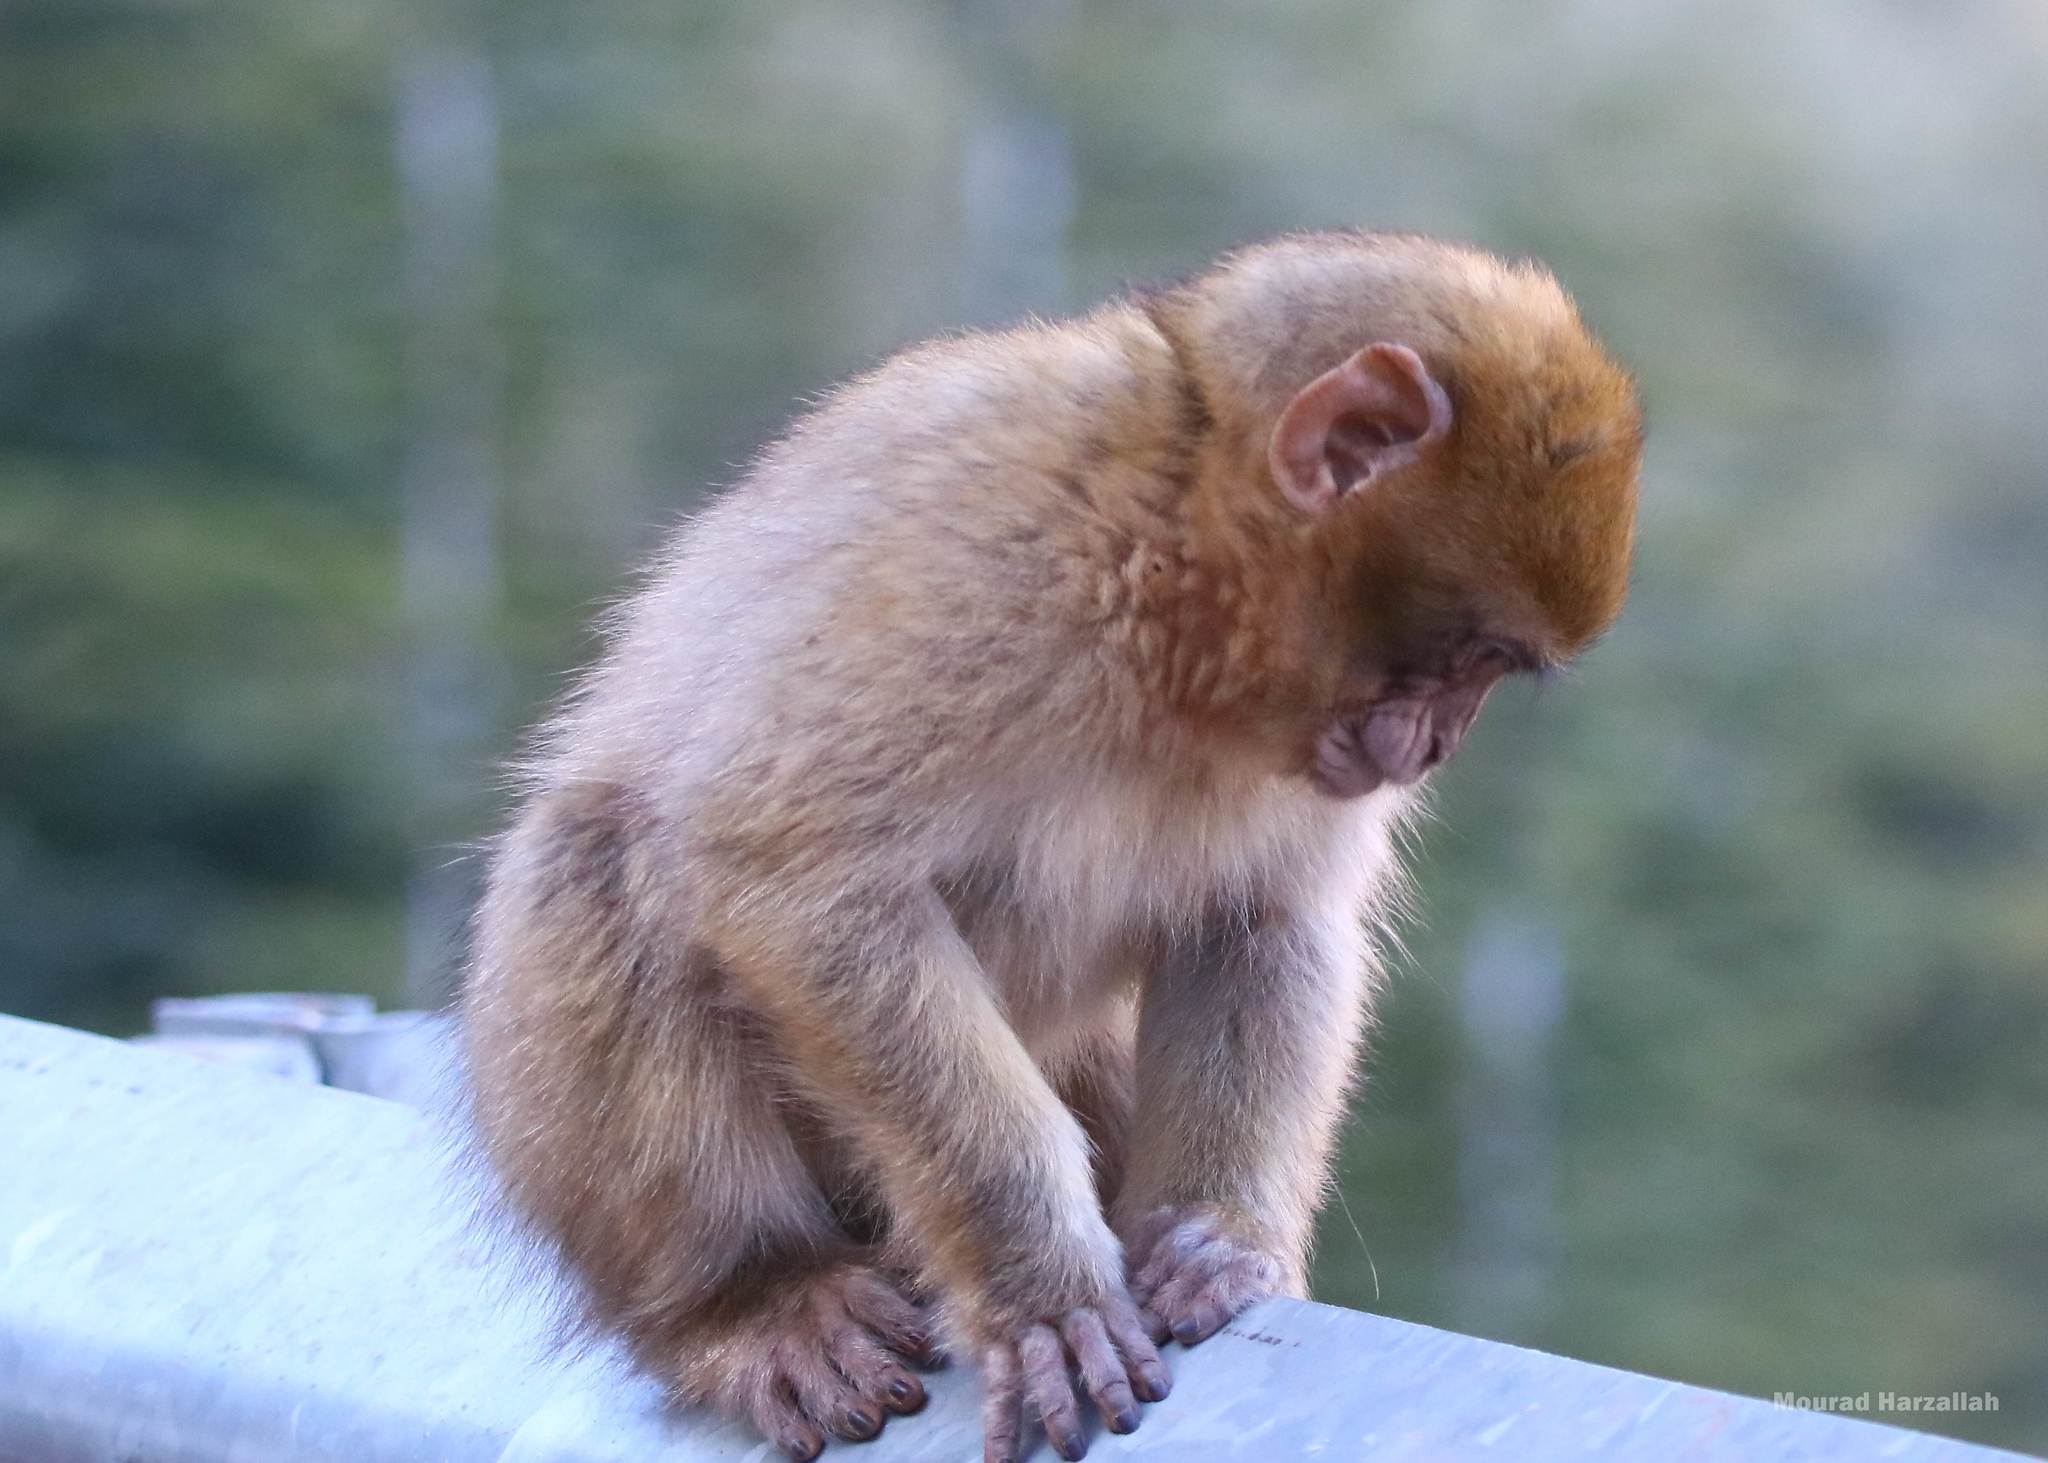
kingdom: Animalia
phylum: Chordata
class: Mammalia
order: Primates
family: Cercopithecidae
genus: Macaca
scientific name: Macaca sylvanus
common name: Barbary macaque
